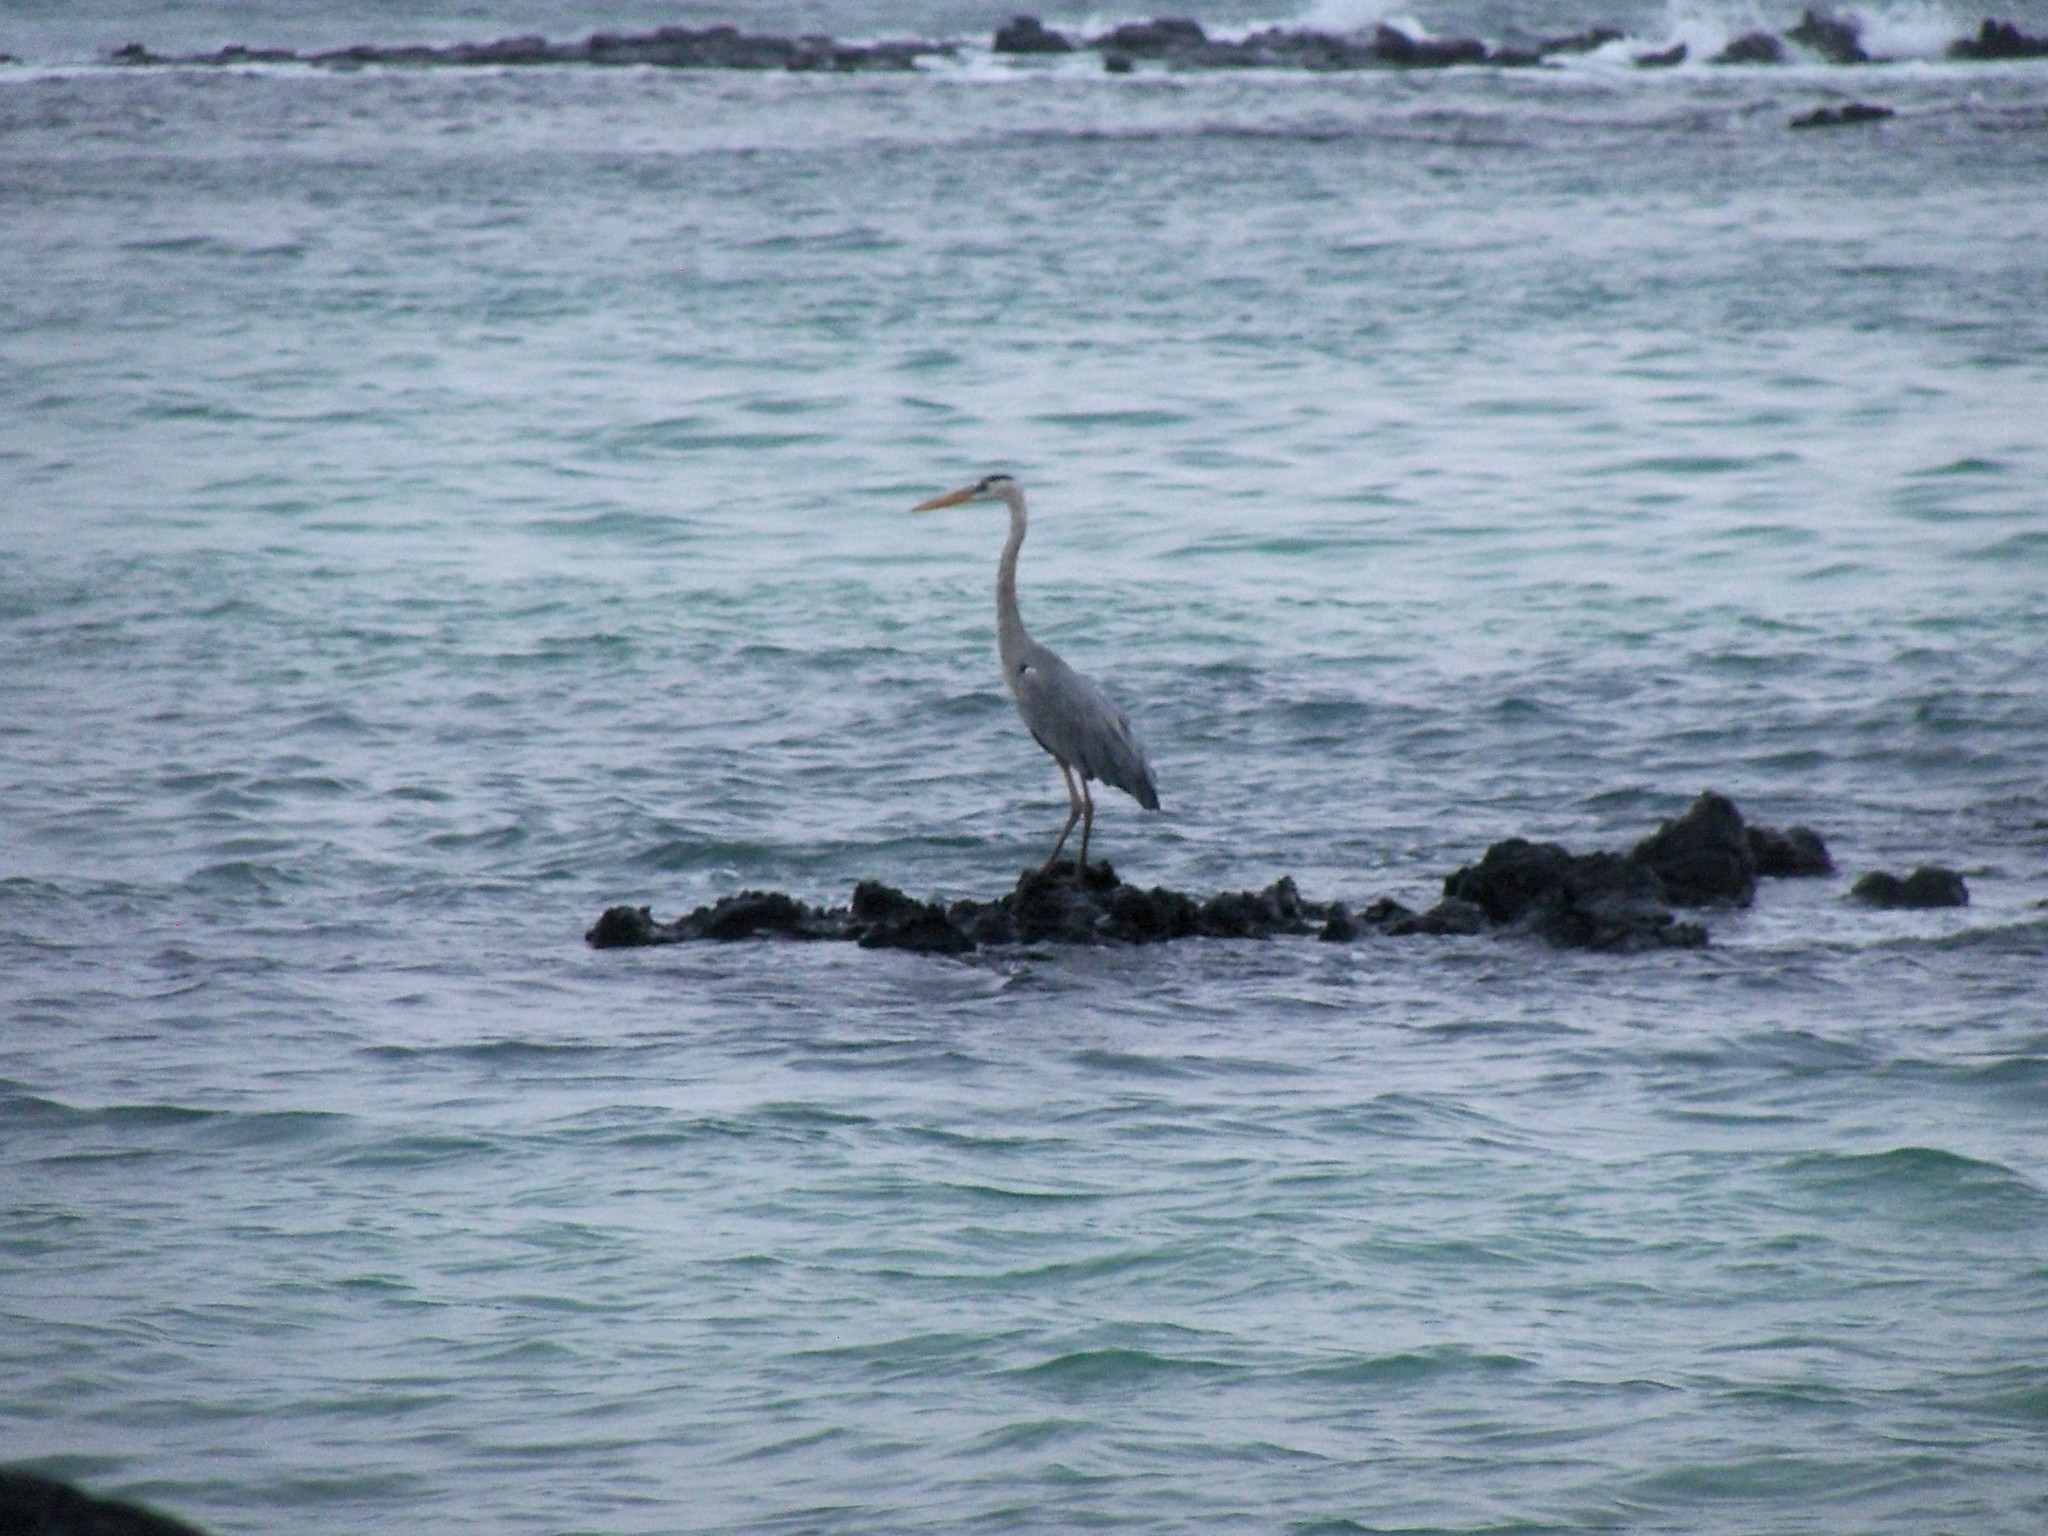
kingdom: Animalia
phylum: Chordata
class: Aves
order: Pelecaniformes
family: Ardeidae
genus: Ardea
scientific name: Ardea herodias
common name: Great blue heron
